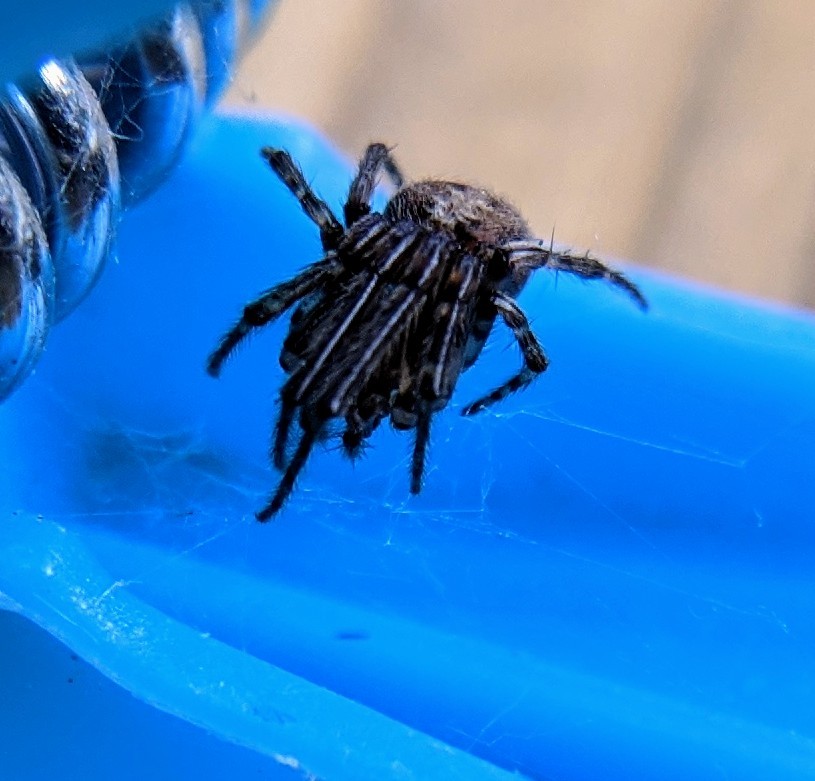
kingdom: Animalia
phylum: Arthropoda
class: Arachnida
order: Araneae
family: Araneidae
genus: Larinioides
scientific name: Larinioides sclopetarius
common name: Bridge orbweaver
